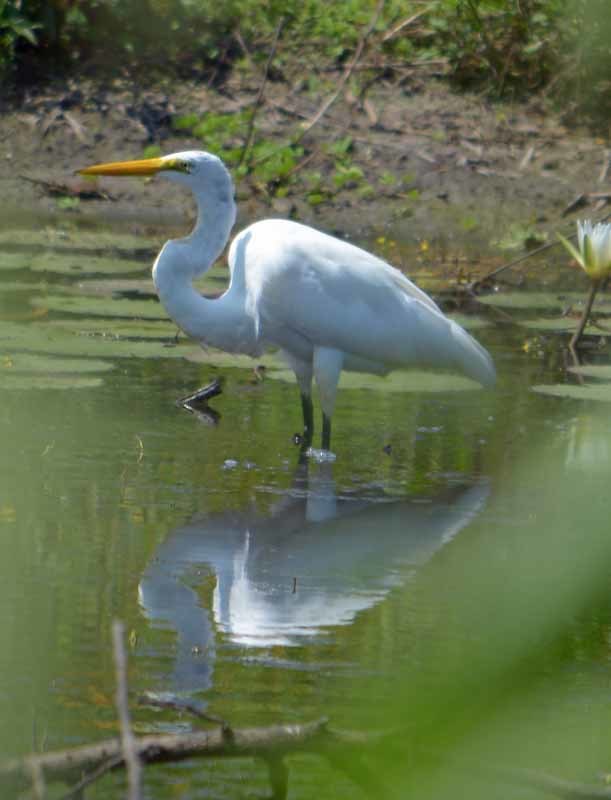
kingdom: Animalia
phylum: Chordata
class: Aves
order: Pelecaniformes
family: Ardeidae
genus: Ardea
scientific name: Ardea alba
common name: Great egret
